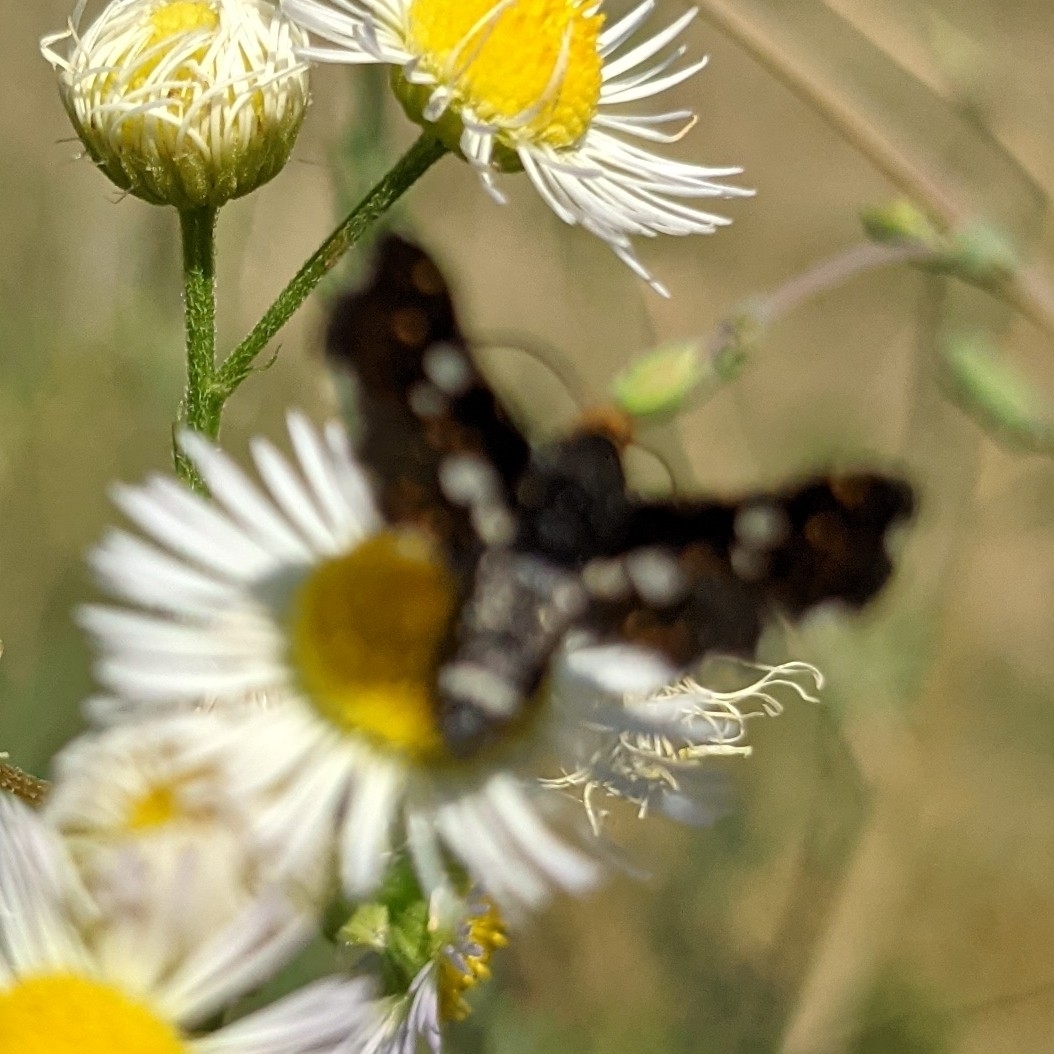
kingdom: Animalia
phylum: Arthropoda
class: Insecta
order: Lepidoptera
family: Thyrididae
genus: Thyris
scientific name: Thyris fenestrella
